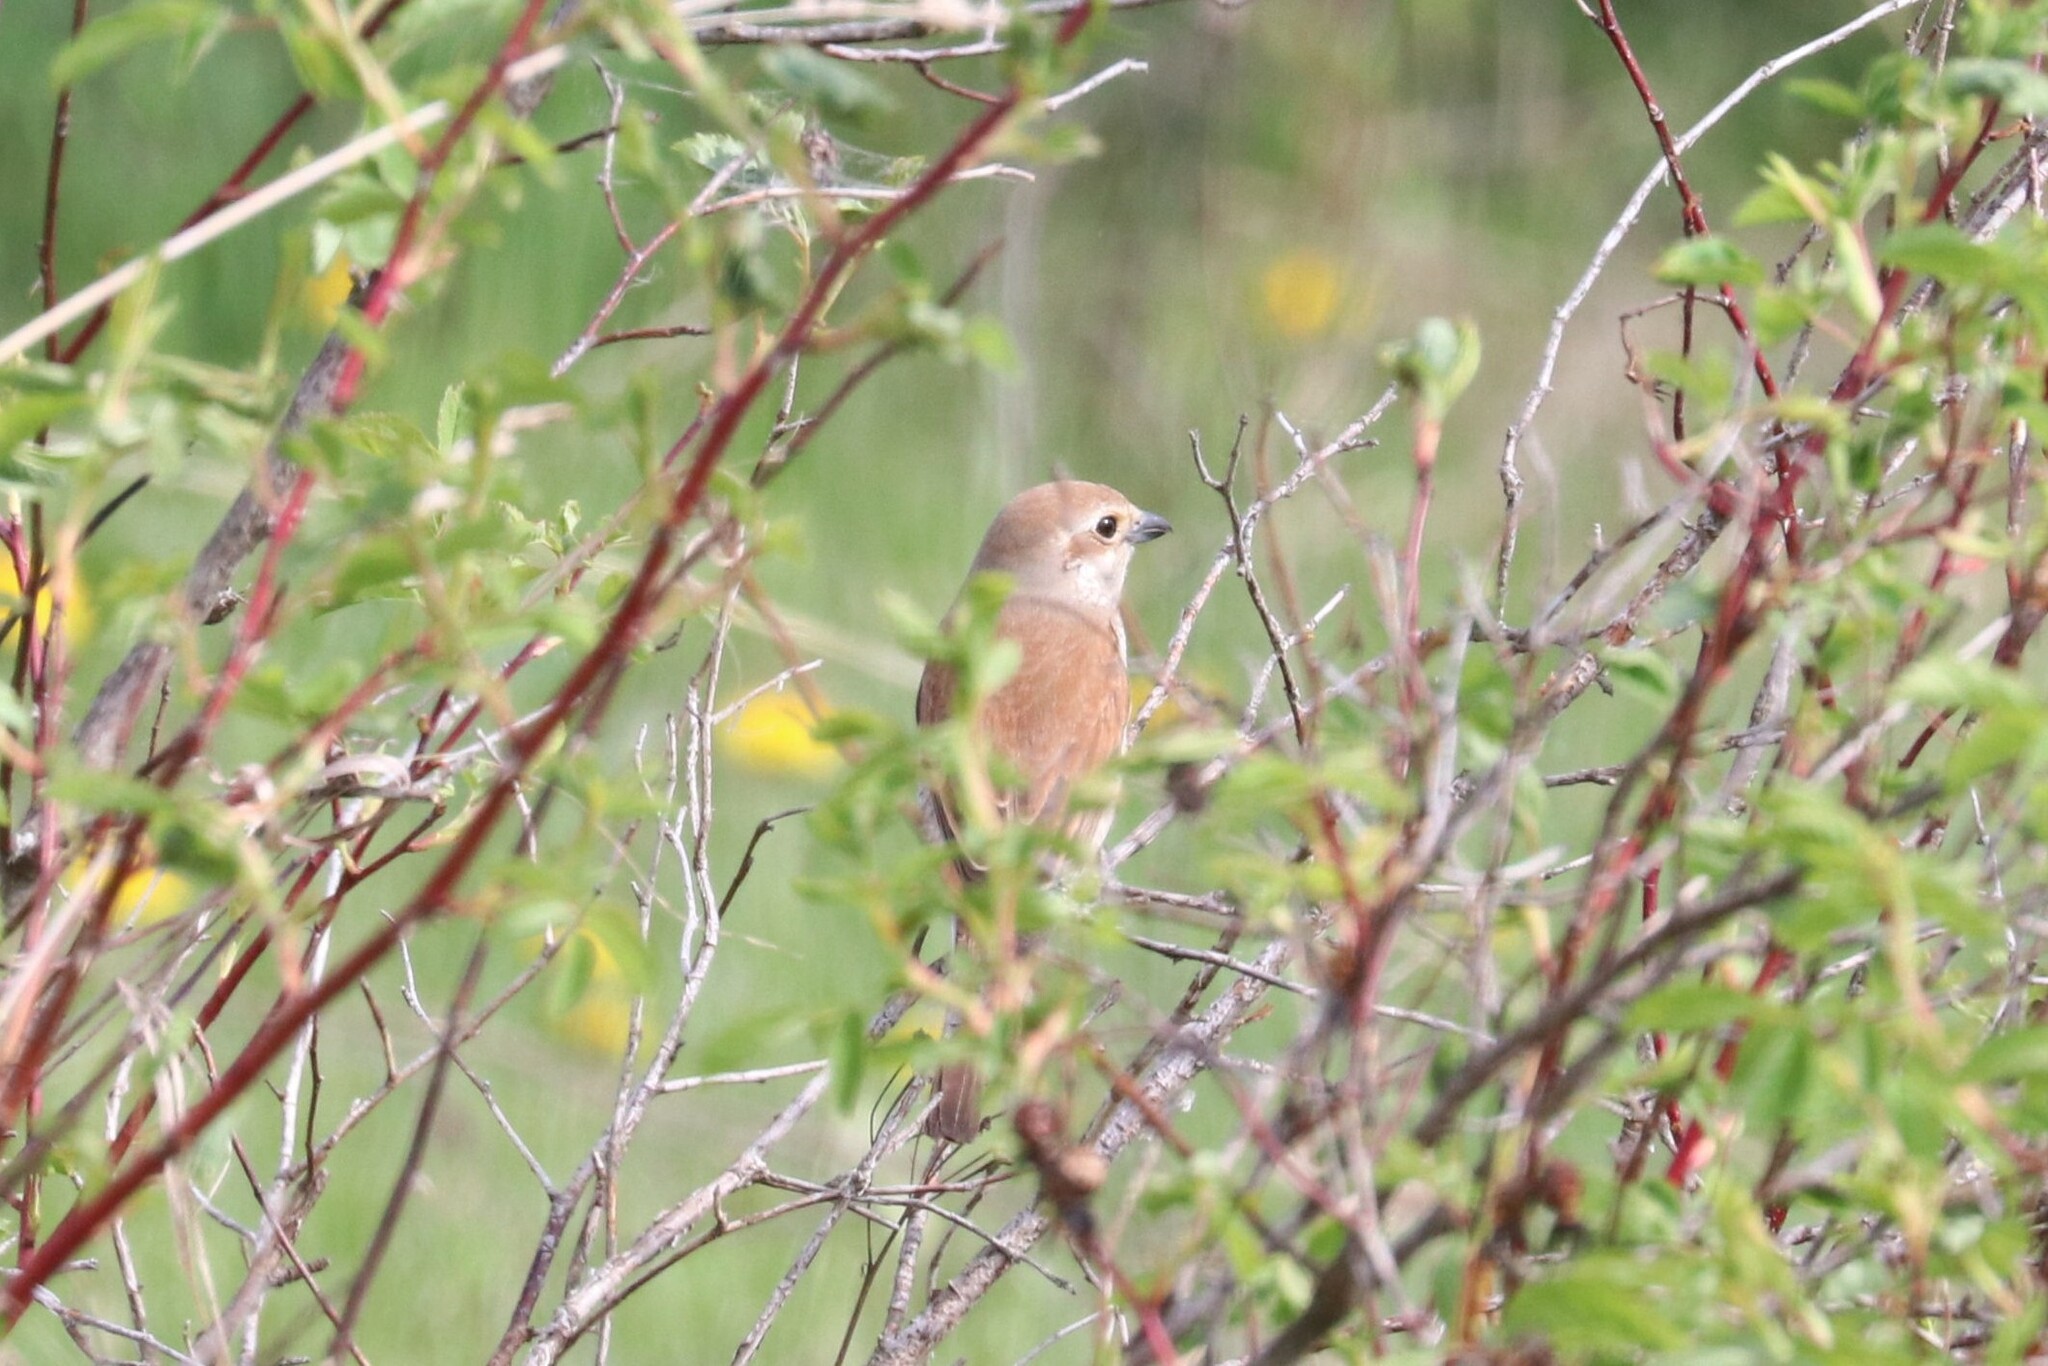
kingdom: Animalia
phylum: Chordata
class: Aves
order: Passeriformes
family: Laniidae
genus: Lanius
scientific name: Lanius collurio
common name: Red-backed shrike
